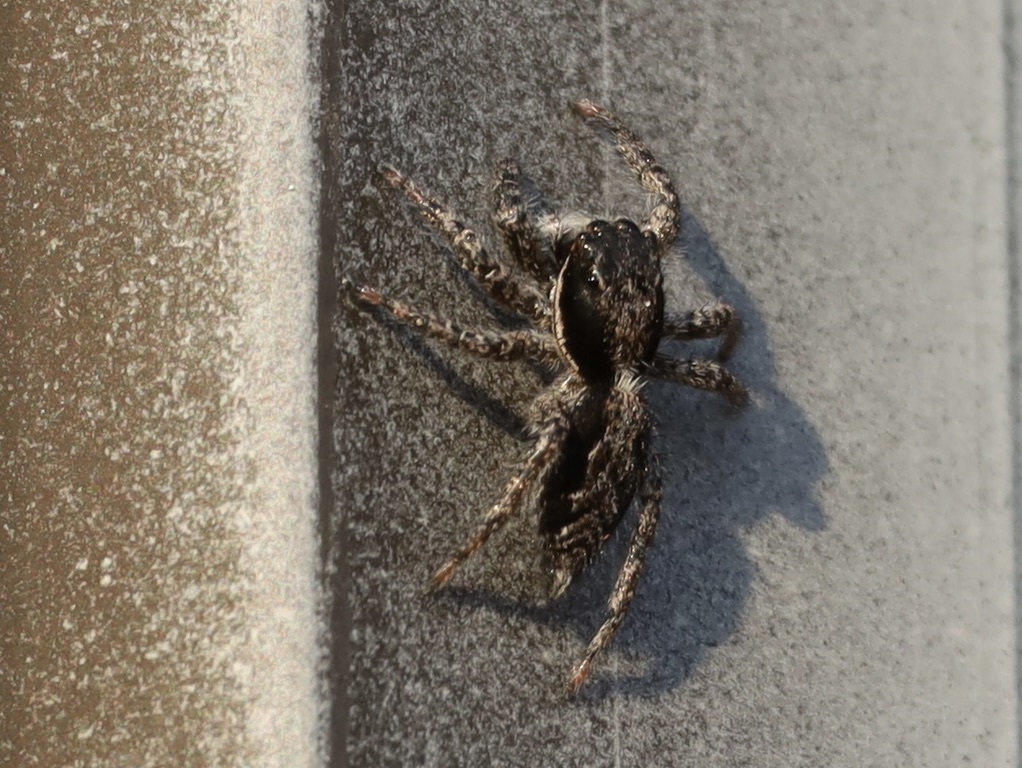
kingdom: Animalia
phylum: Arthropoda
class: Arachnida
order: Araneae
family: Salticidae
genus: Platycryptus
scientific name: Platycryptus californicus
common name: Jumping spiders
